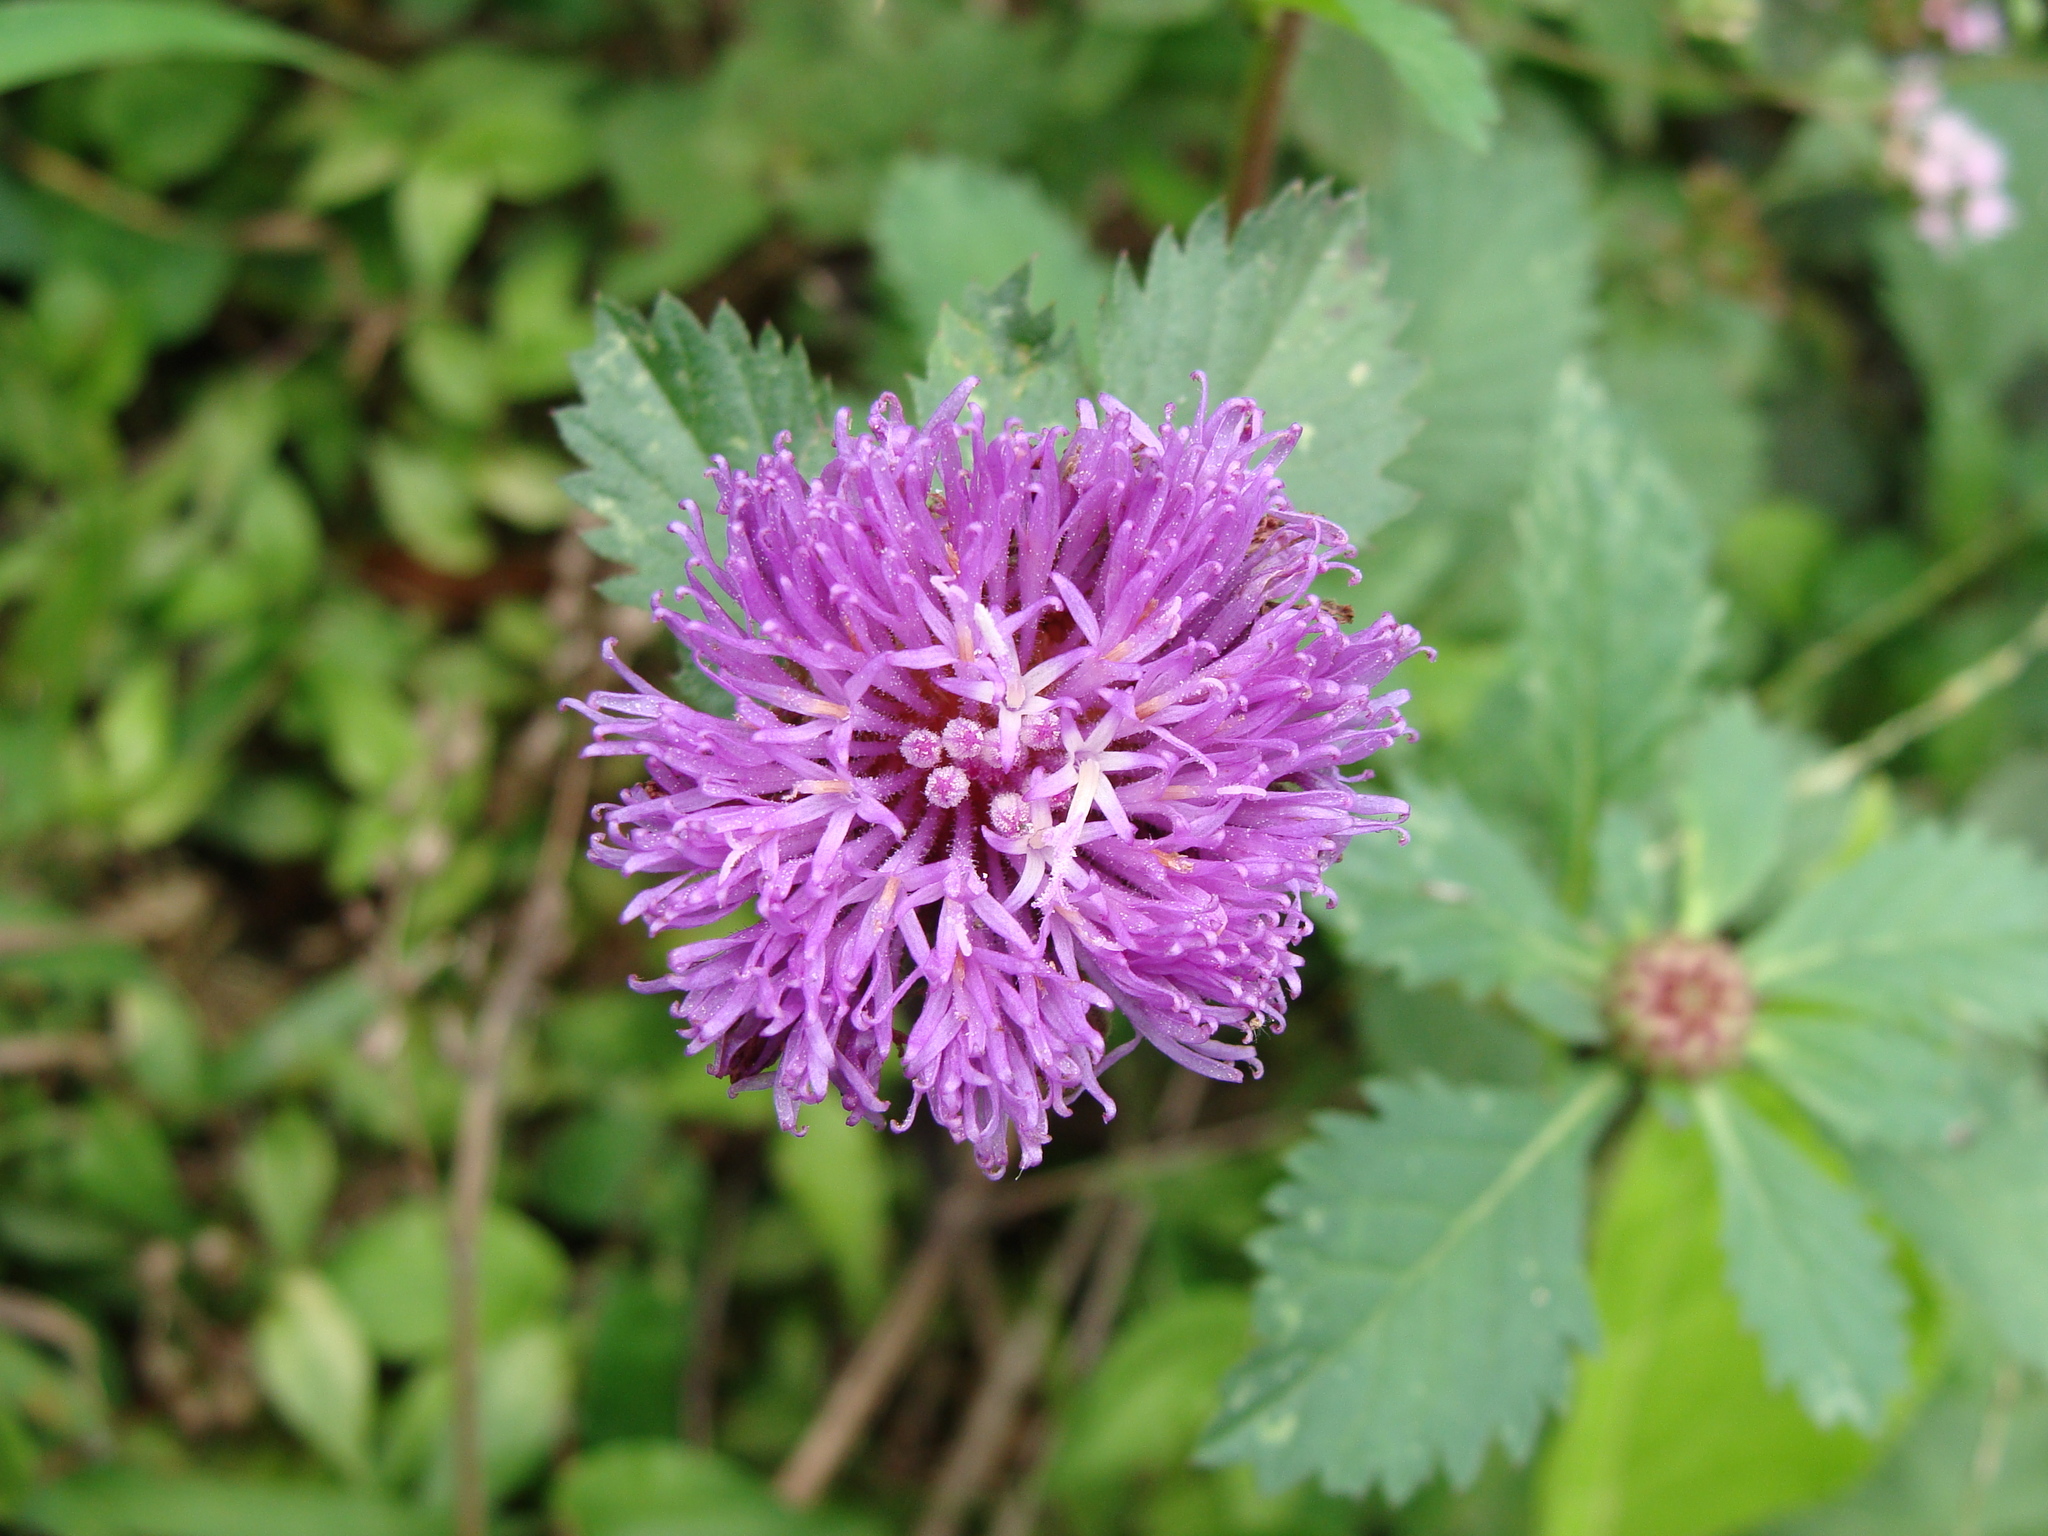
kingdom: Plantae
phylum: Tracheophyta
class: Magnoliopsida
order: Asterales
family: Asteraceae
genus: Centratherum
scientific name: Centratherum punctatum
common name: Larkdaisy
